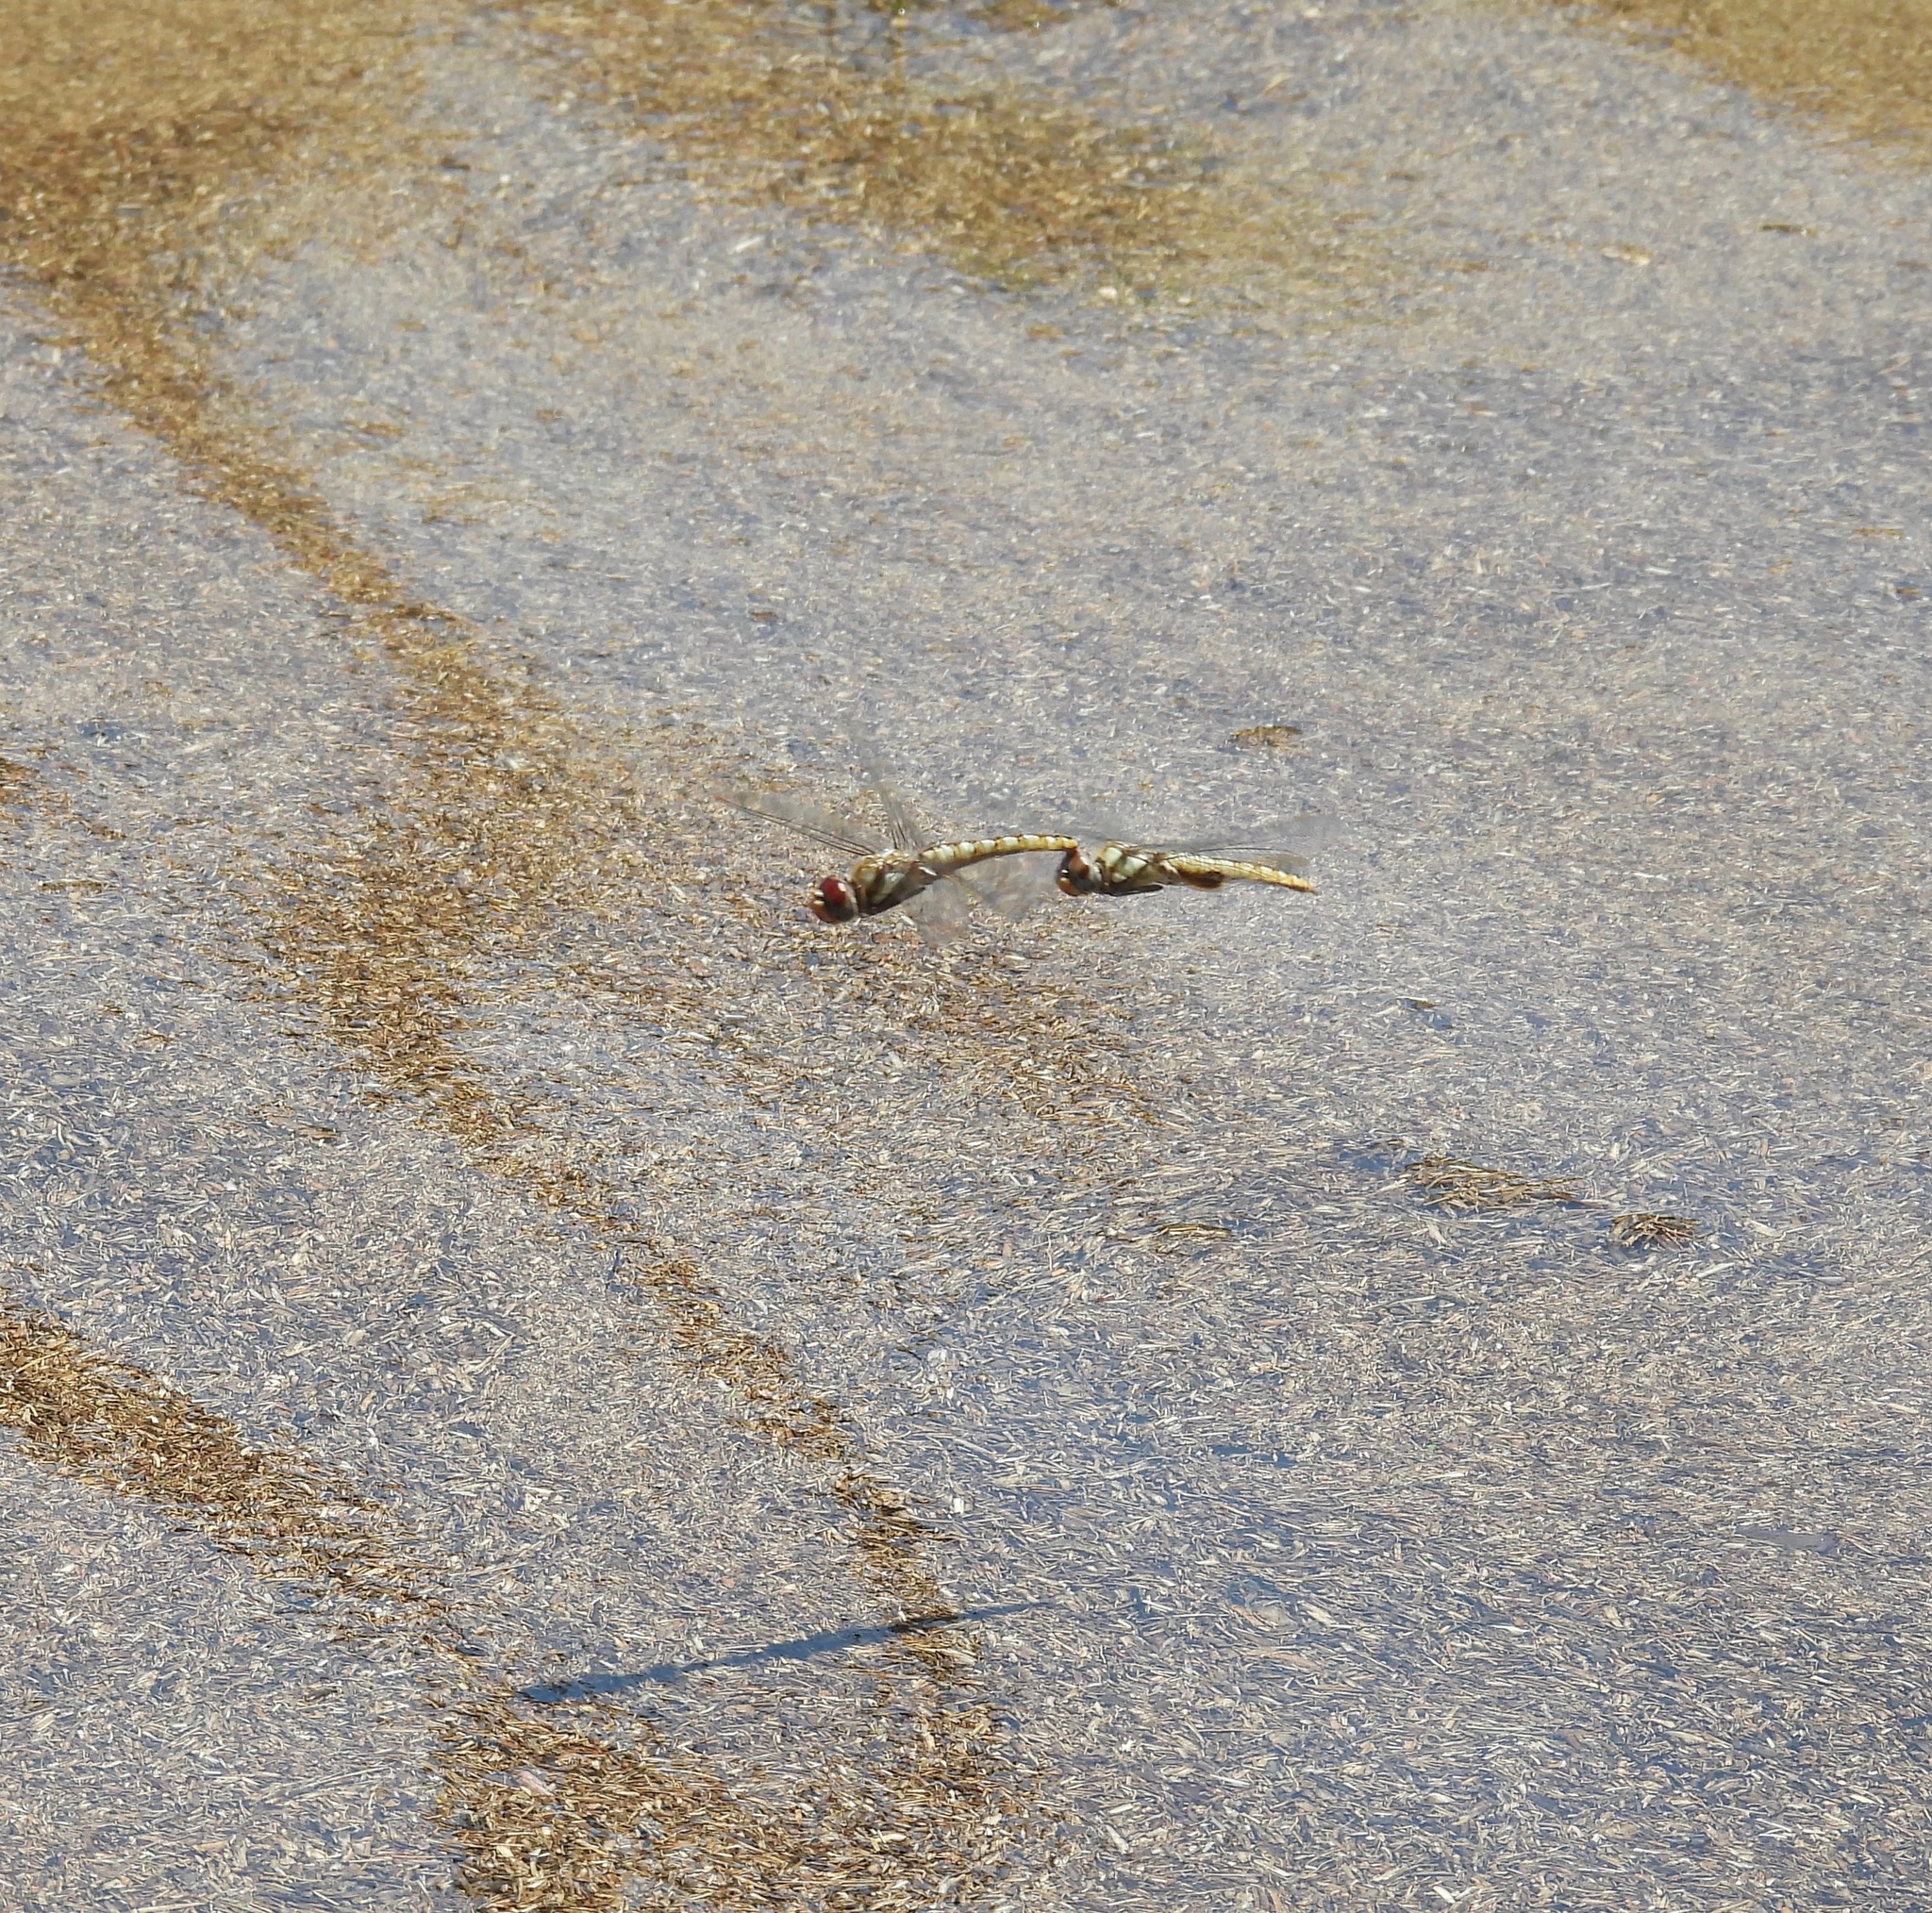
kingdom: Animalia
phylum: Arthropoda
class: Insecta
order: Odonata
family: Libellulidae
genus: Pantala
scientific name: Pantala hymenaea
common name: Spot-winged glider
